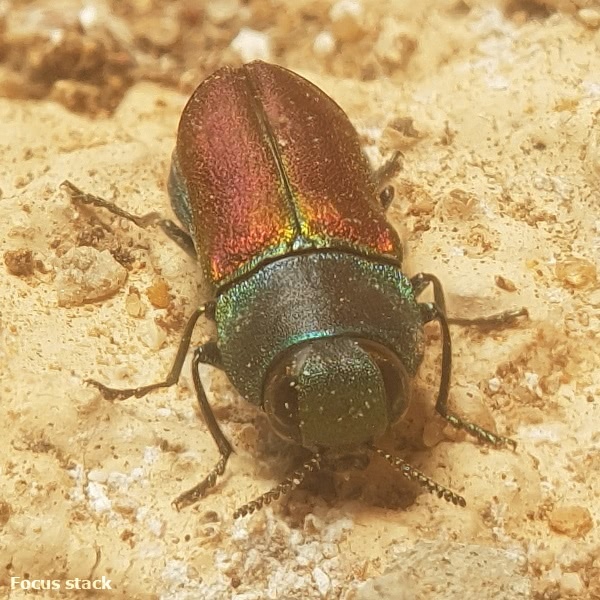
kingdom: Animalia
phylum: Arthropoda
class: Insecta
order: Coleoptera
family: Buprestidae
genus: Anthaxia
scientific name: Anthaxia cichorii
